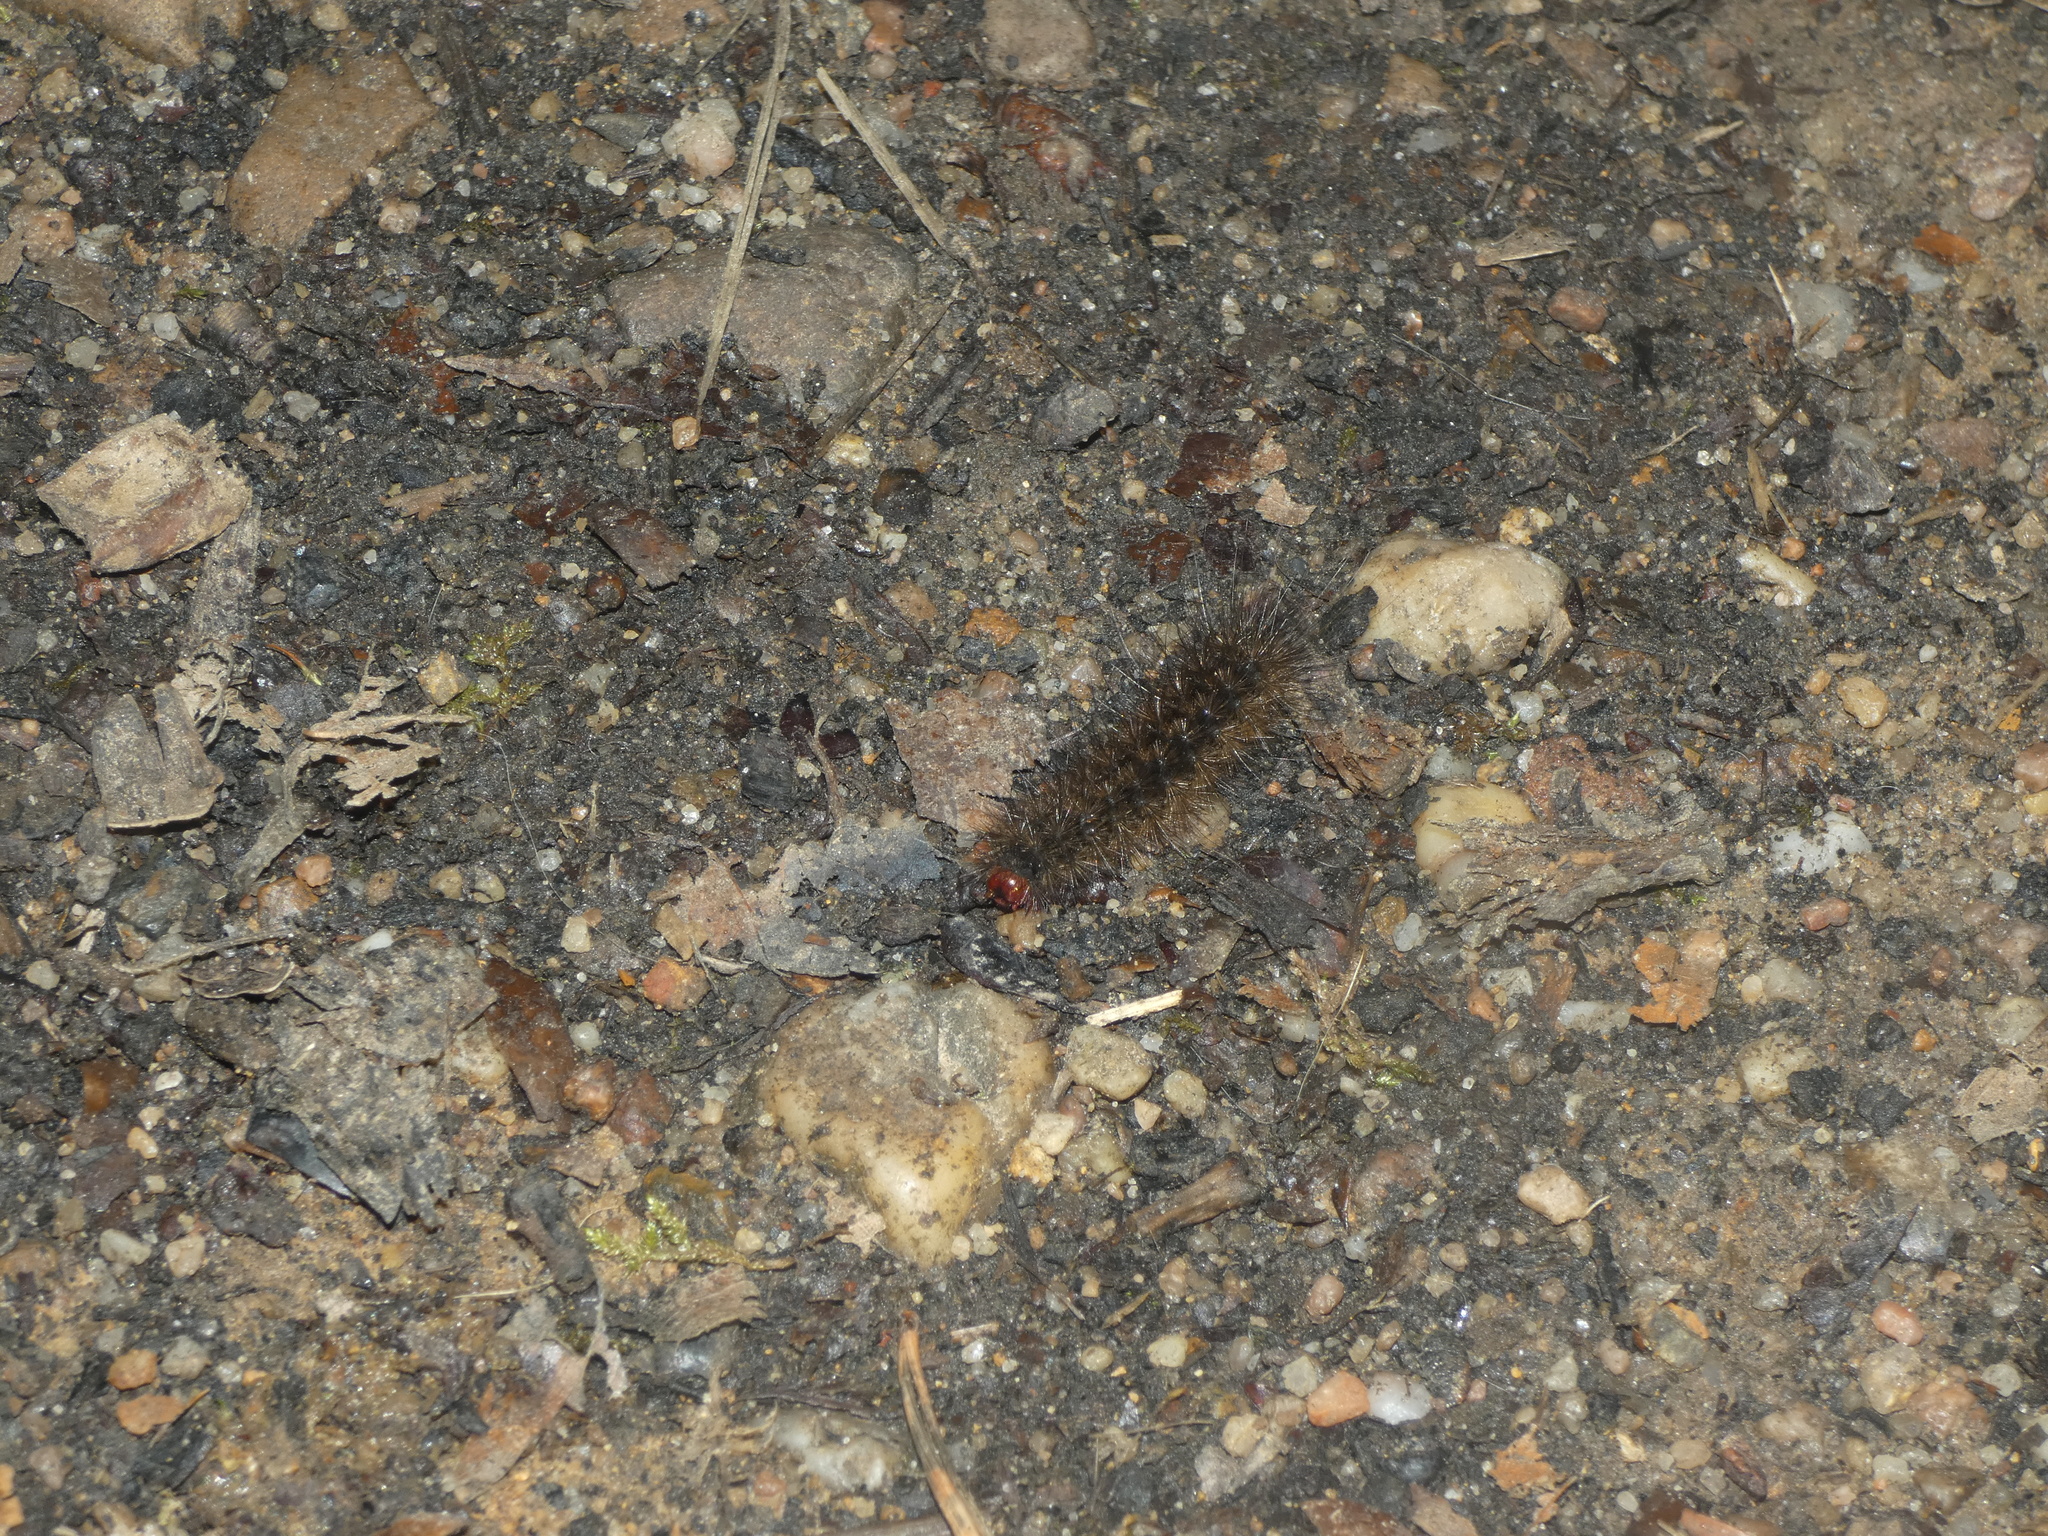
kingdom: Animalia
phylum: Arthropoda
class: Insecta
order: Lepidoptera
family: Erebidae
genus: Epicallia
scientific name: Epicallia villica
